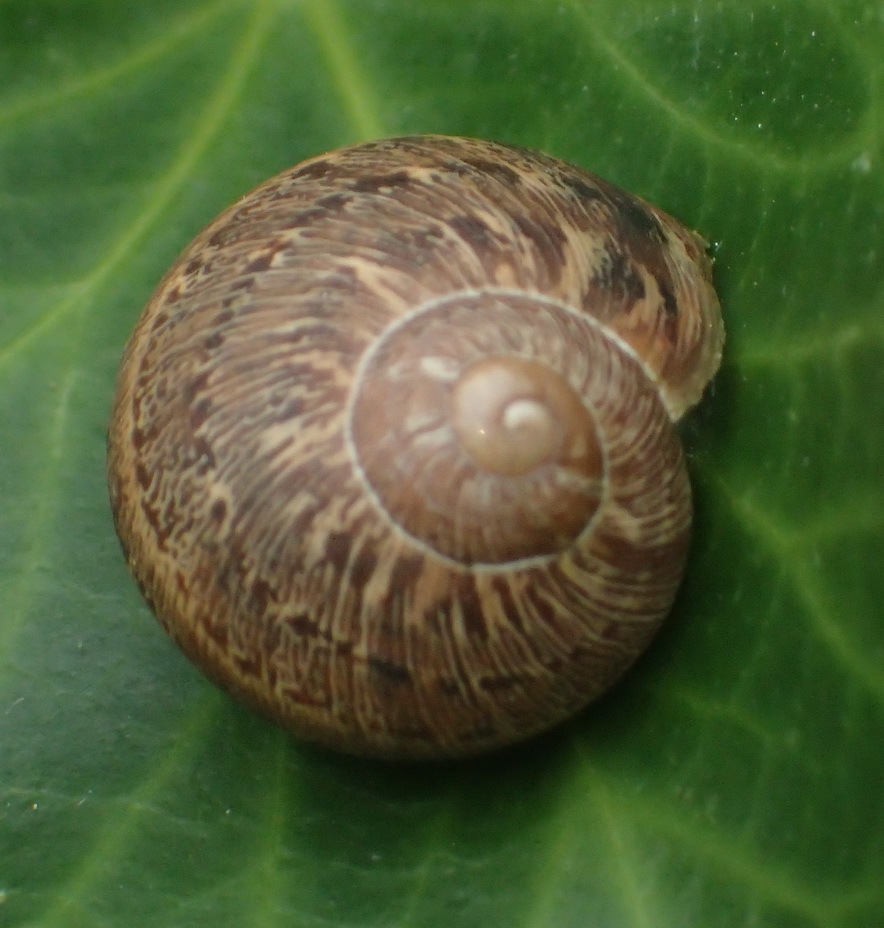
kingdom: Animalia
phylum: Mollusca
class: Gastropoda
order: Stylommatophora
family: Helicidae
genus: Cornu
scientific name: Cornu aspersum
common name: Brown garden snail
